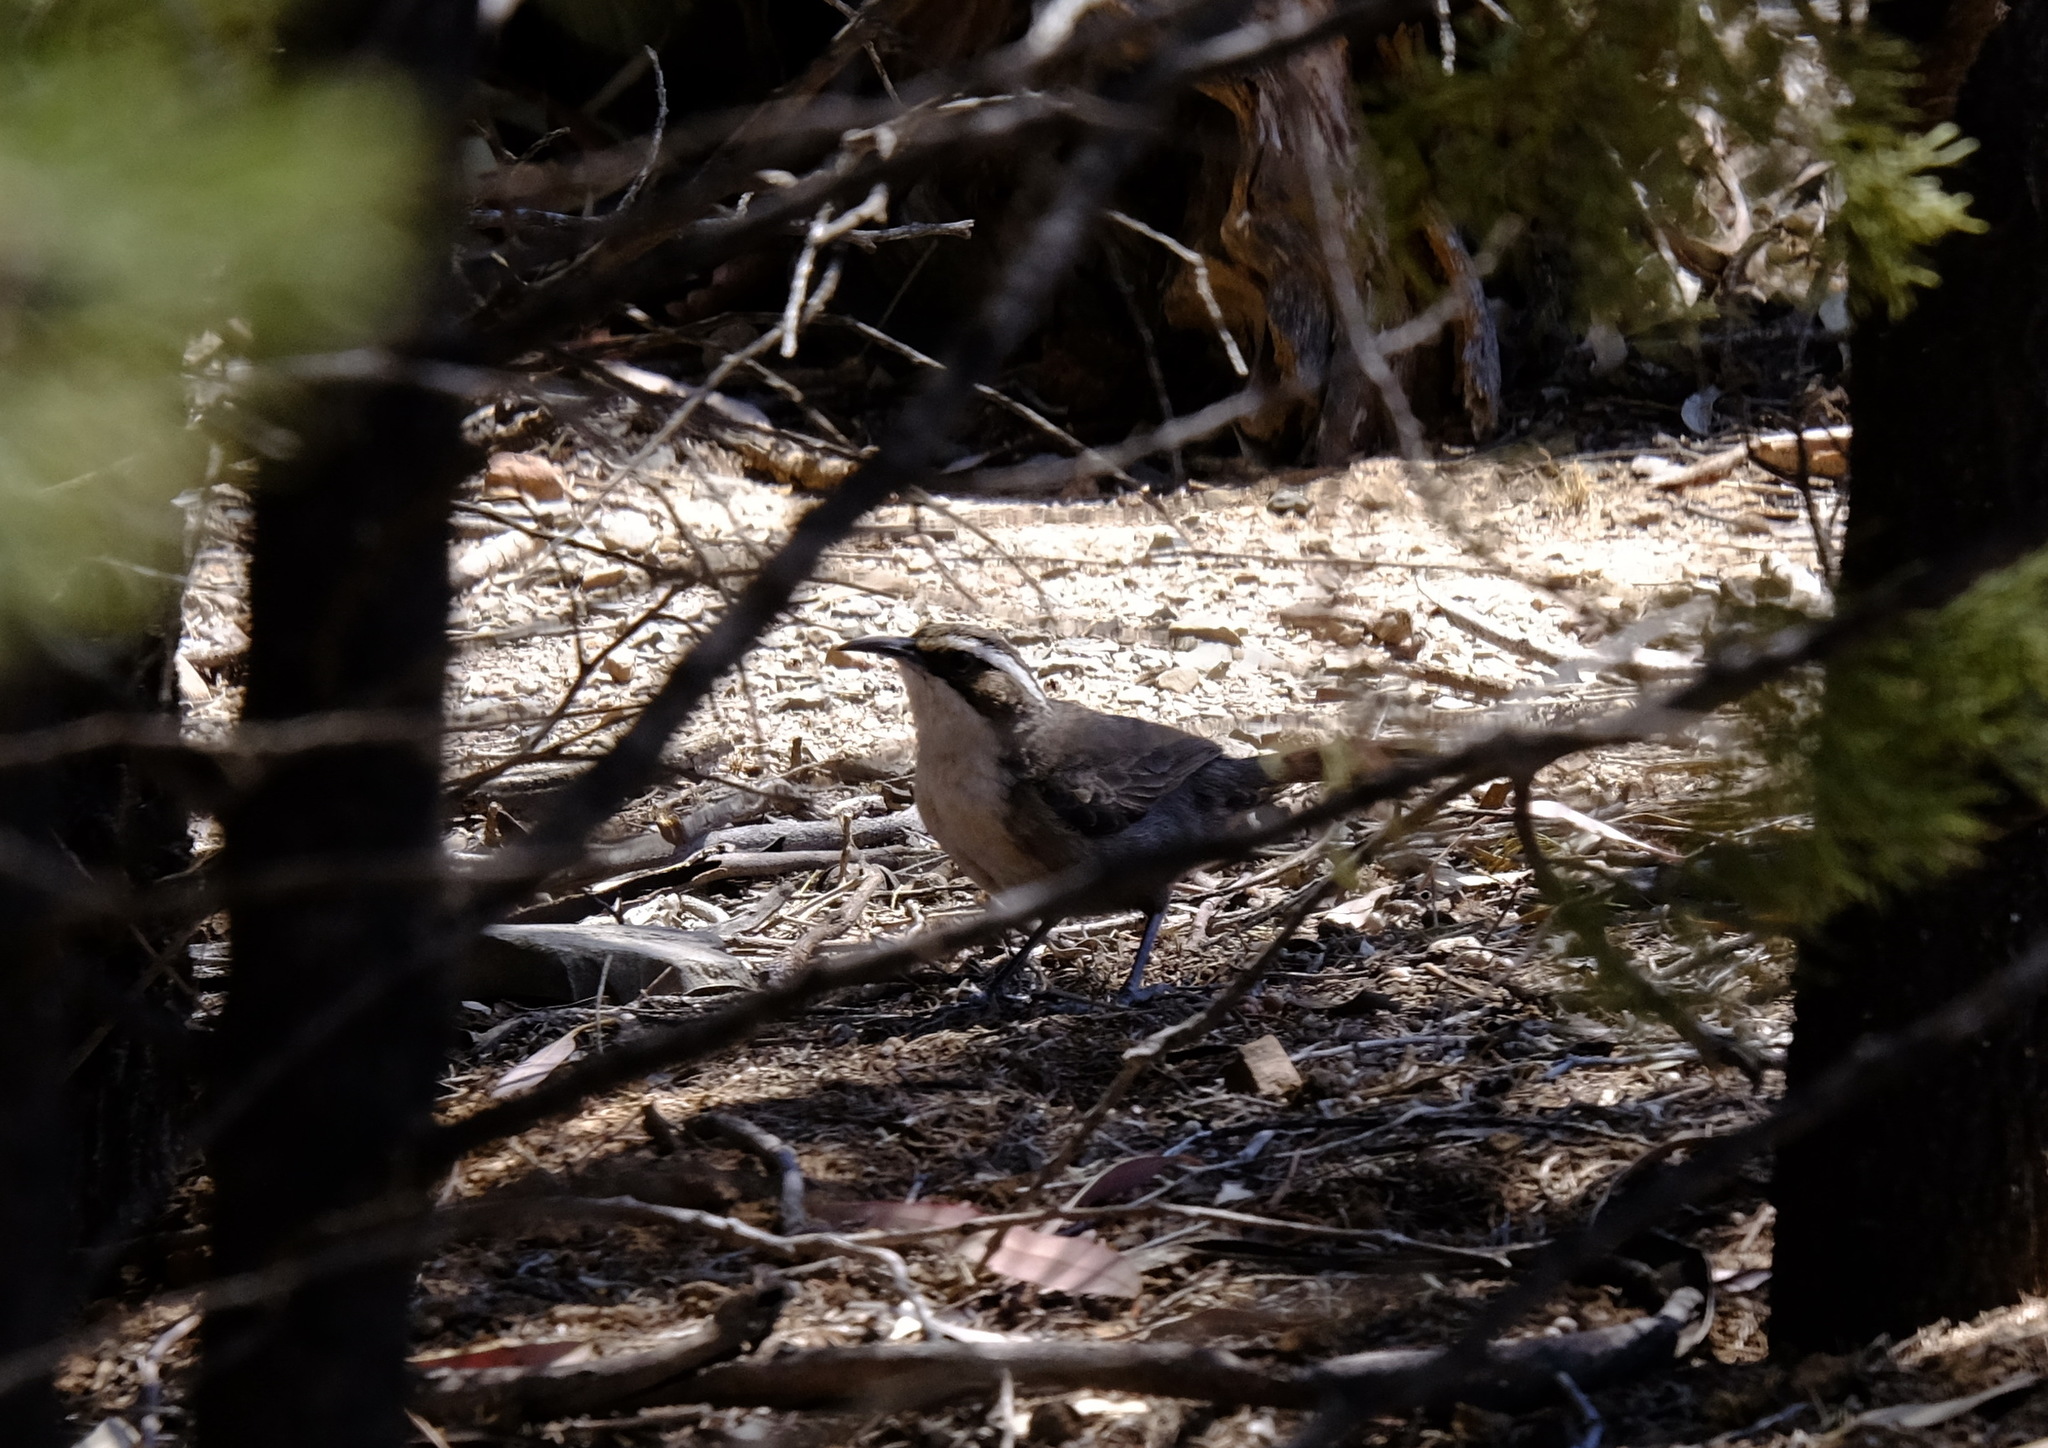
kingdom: Animalia
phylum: Chordata
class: Aves
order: Passeriformes
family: Pomatostomidae
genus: Pomatostomus
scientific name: Pomatostomus superciliosus
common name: White-browed babbler
